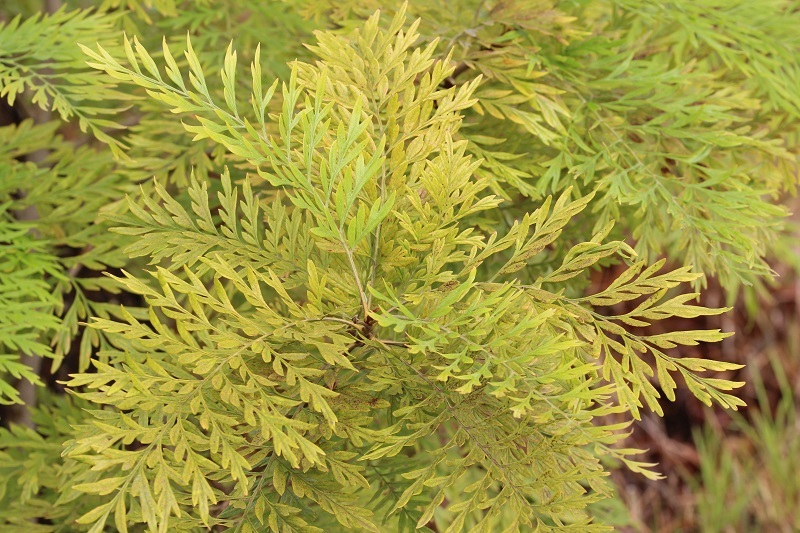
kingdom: Plantae
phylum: Tracheophyta
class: Magnoliopsida
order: Proteales
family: Proteaceae
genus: Grevillea
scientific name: Grevillea robusta
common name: Silkoak
